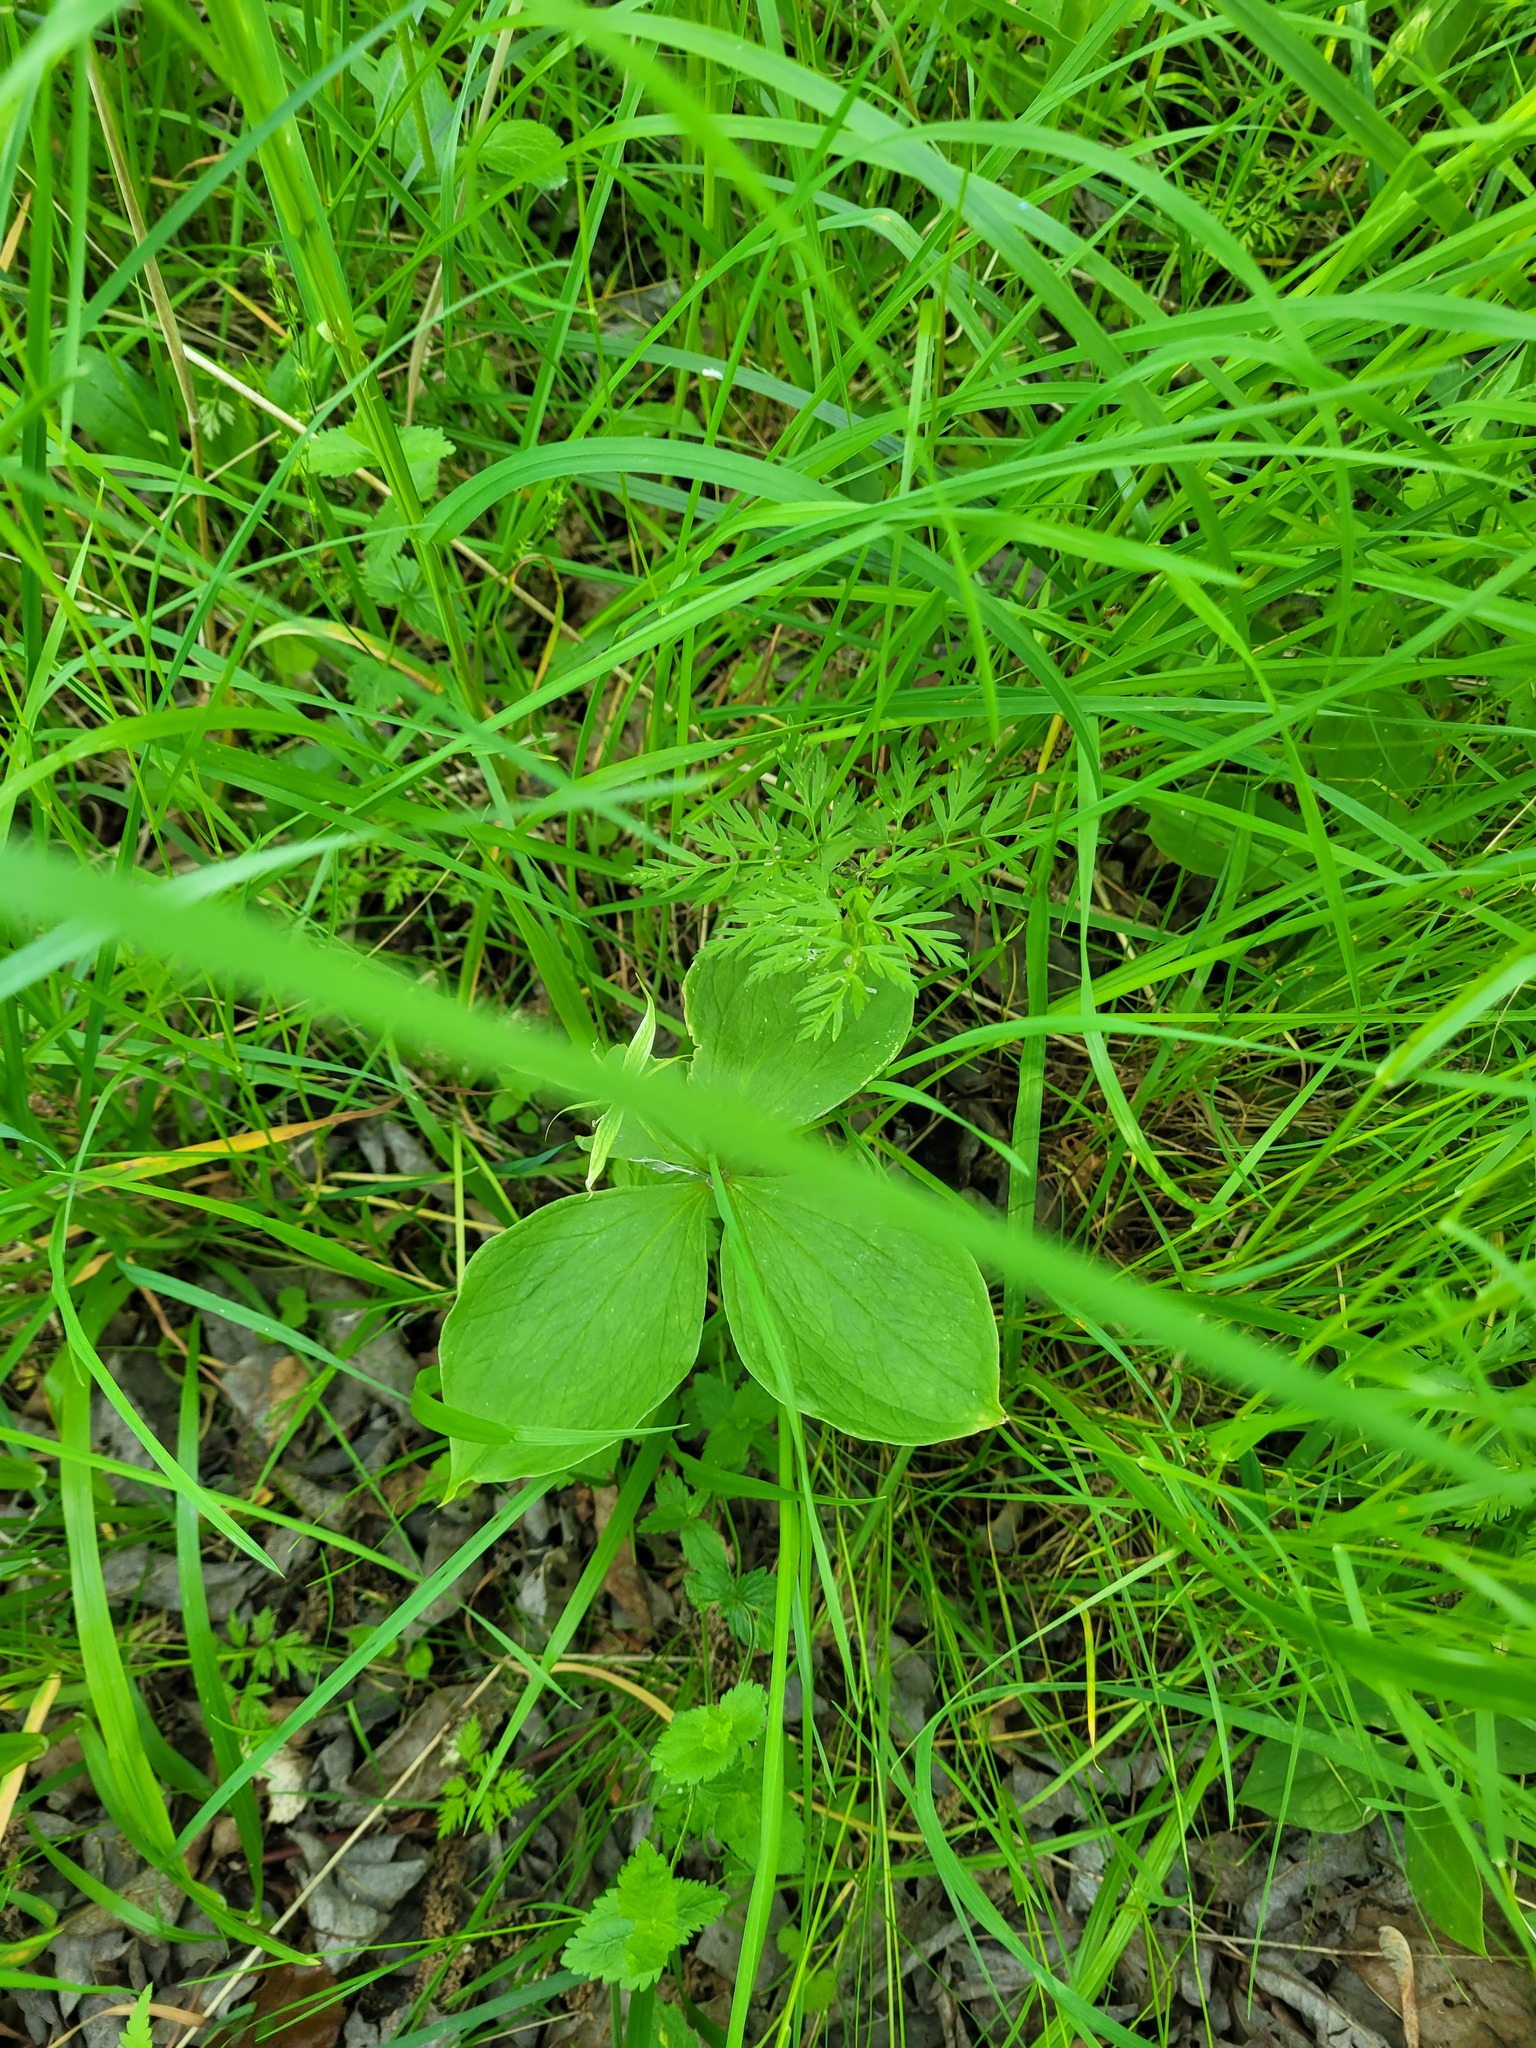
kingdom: Plantae
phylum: Tracheophyta
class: Liliopsida
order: Liliales
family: Melanthiaceae
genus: Paris
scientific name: Paris quadrifolia
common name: Herb-paris
